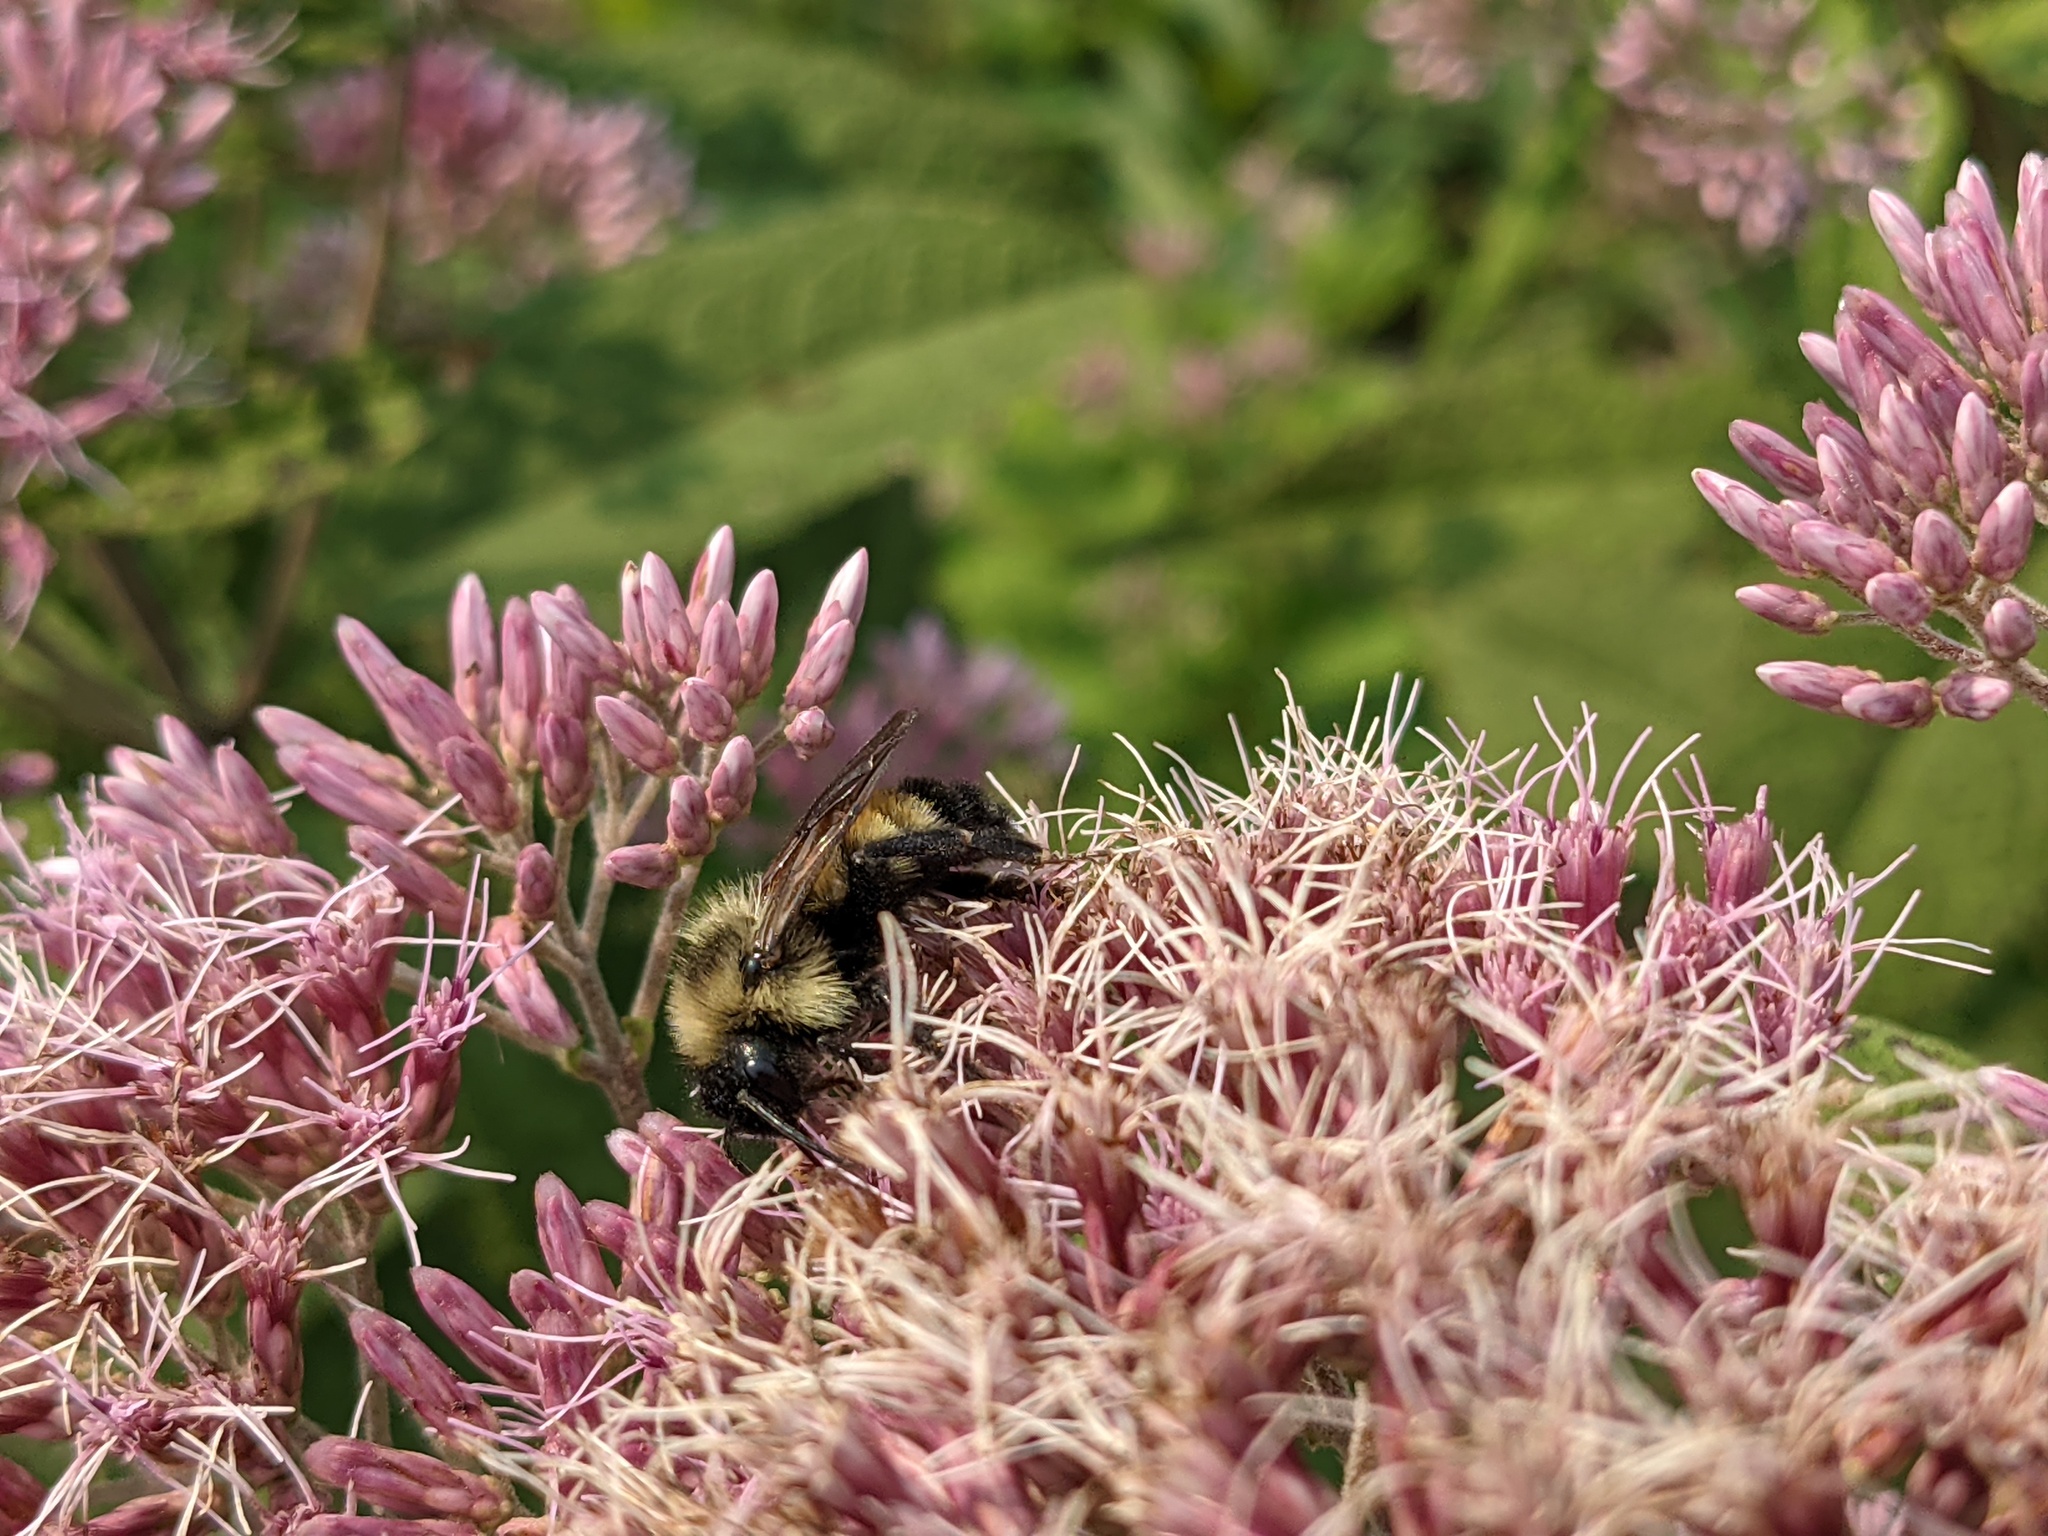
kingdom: Animalia
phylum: Arthropoda
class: Insecta
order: Hymenoptera
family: Apidae
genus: Bombus
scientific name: Bombus citrinus
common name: Lemon cuckoo bumble bee
